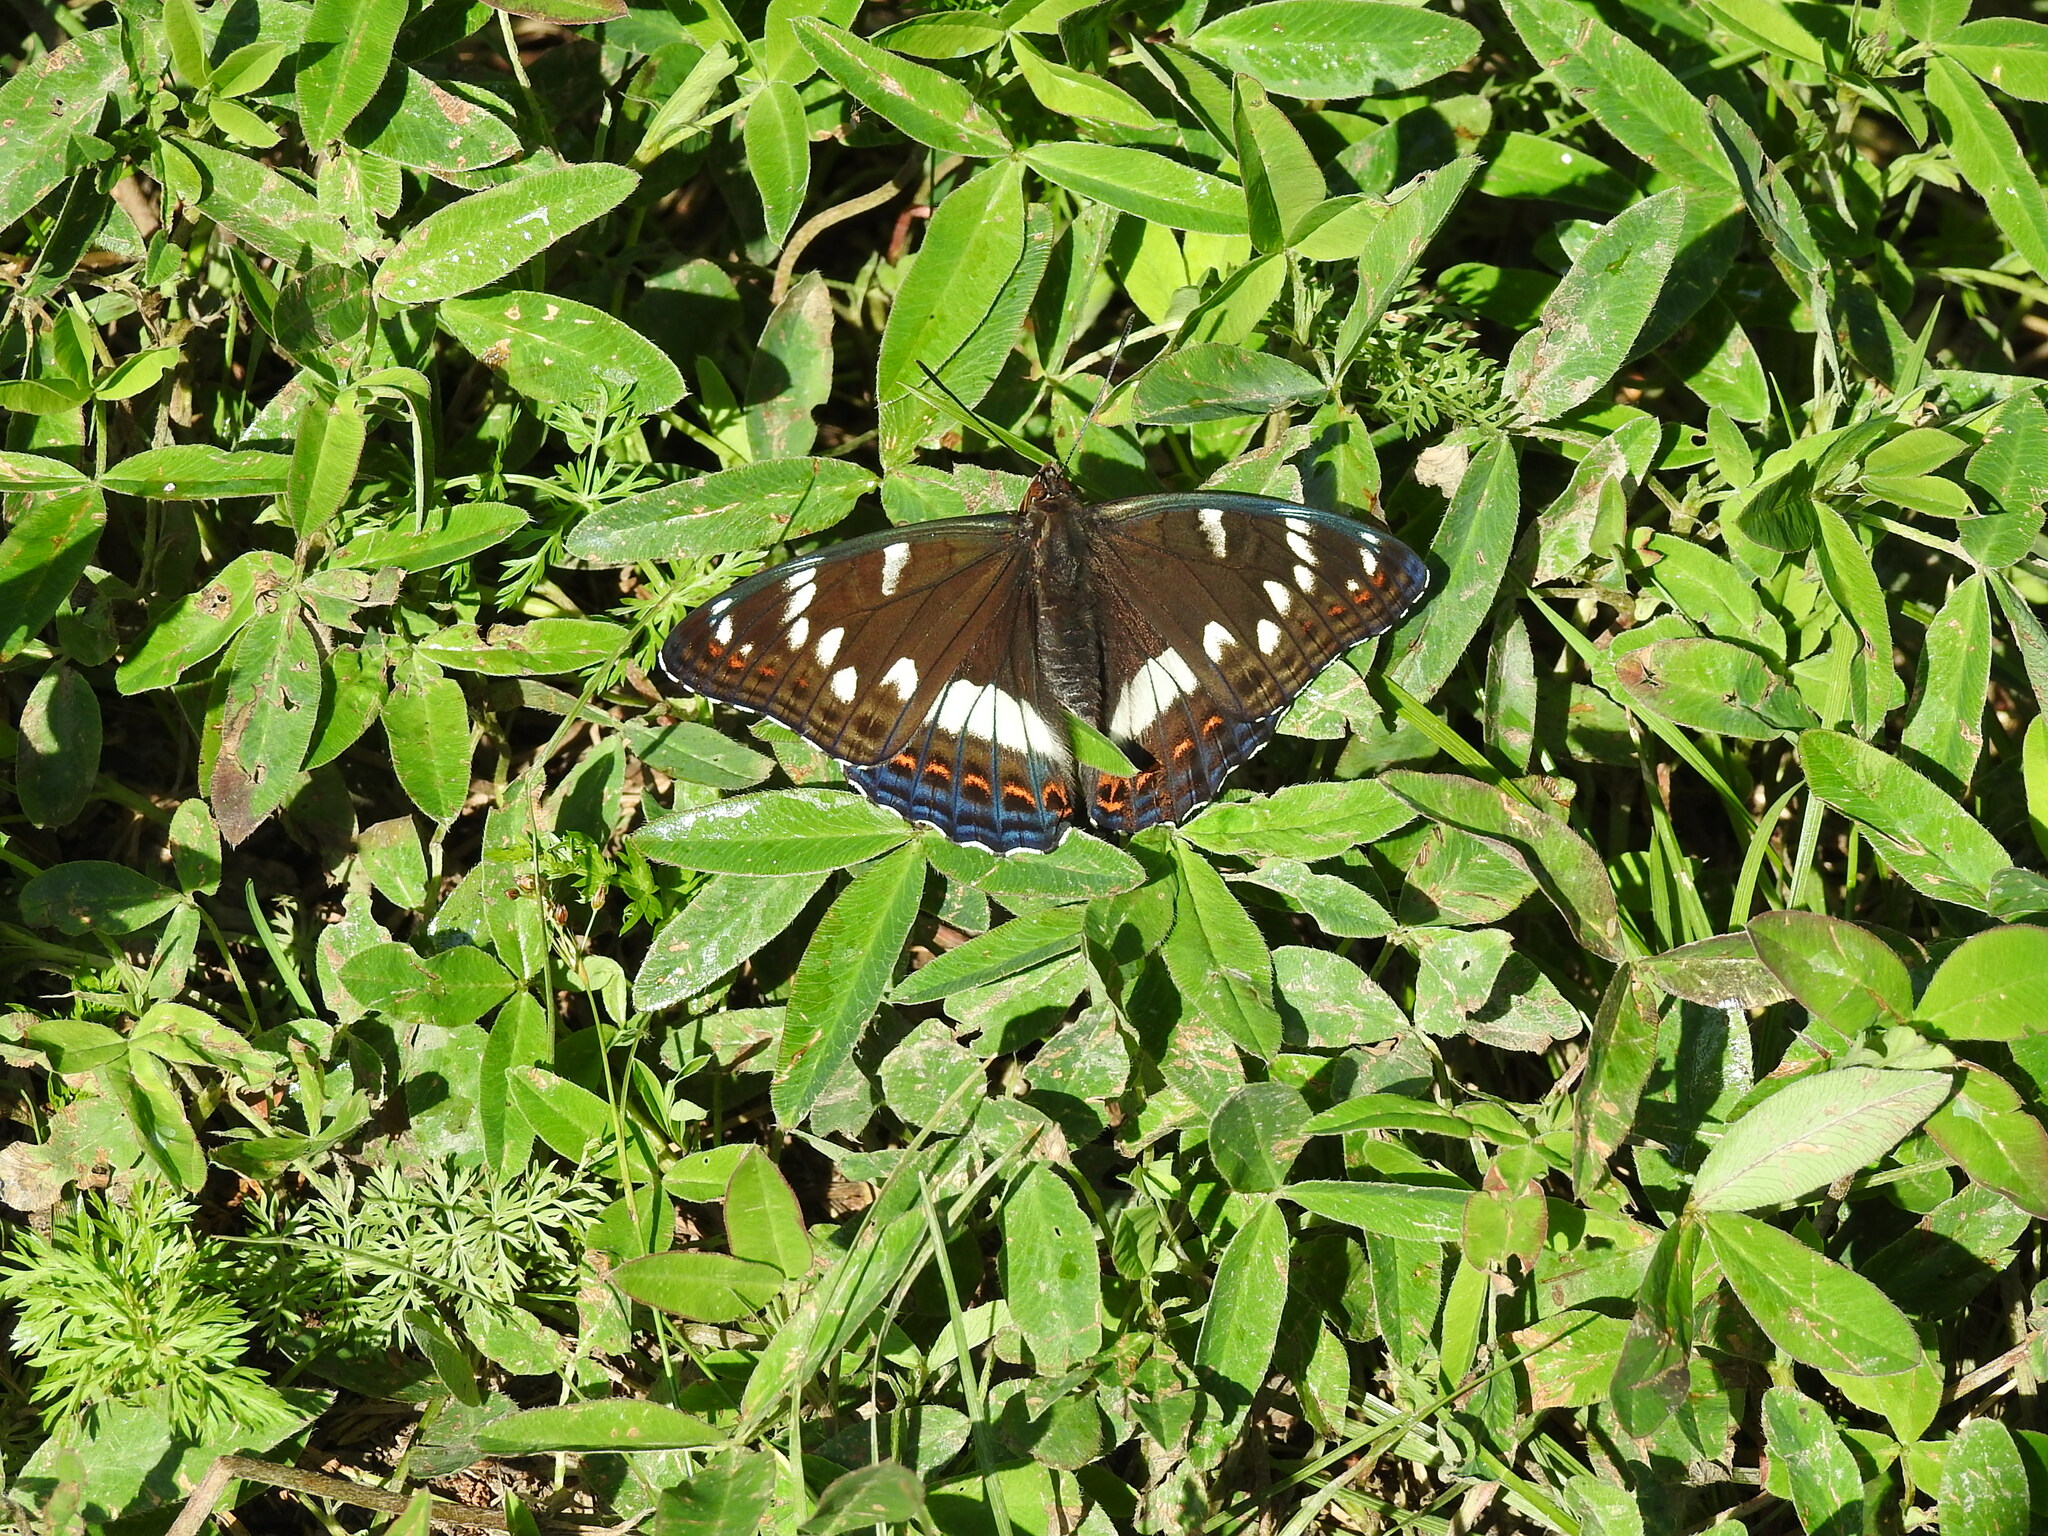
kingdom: Animalia
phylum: Arthropoda
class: Insecta
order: Lepidoptera
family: Nymphalidae
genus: Limenitis
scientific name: Limenitis populi
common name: Poplar admiral
